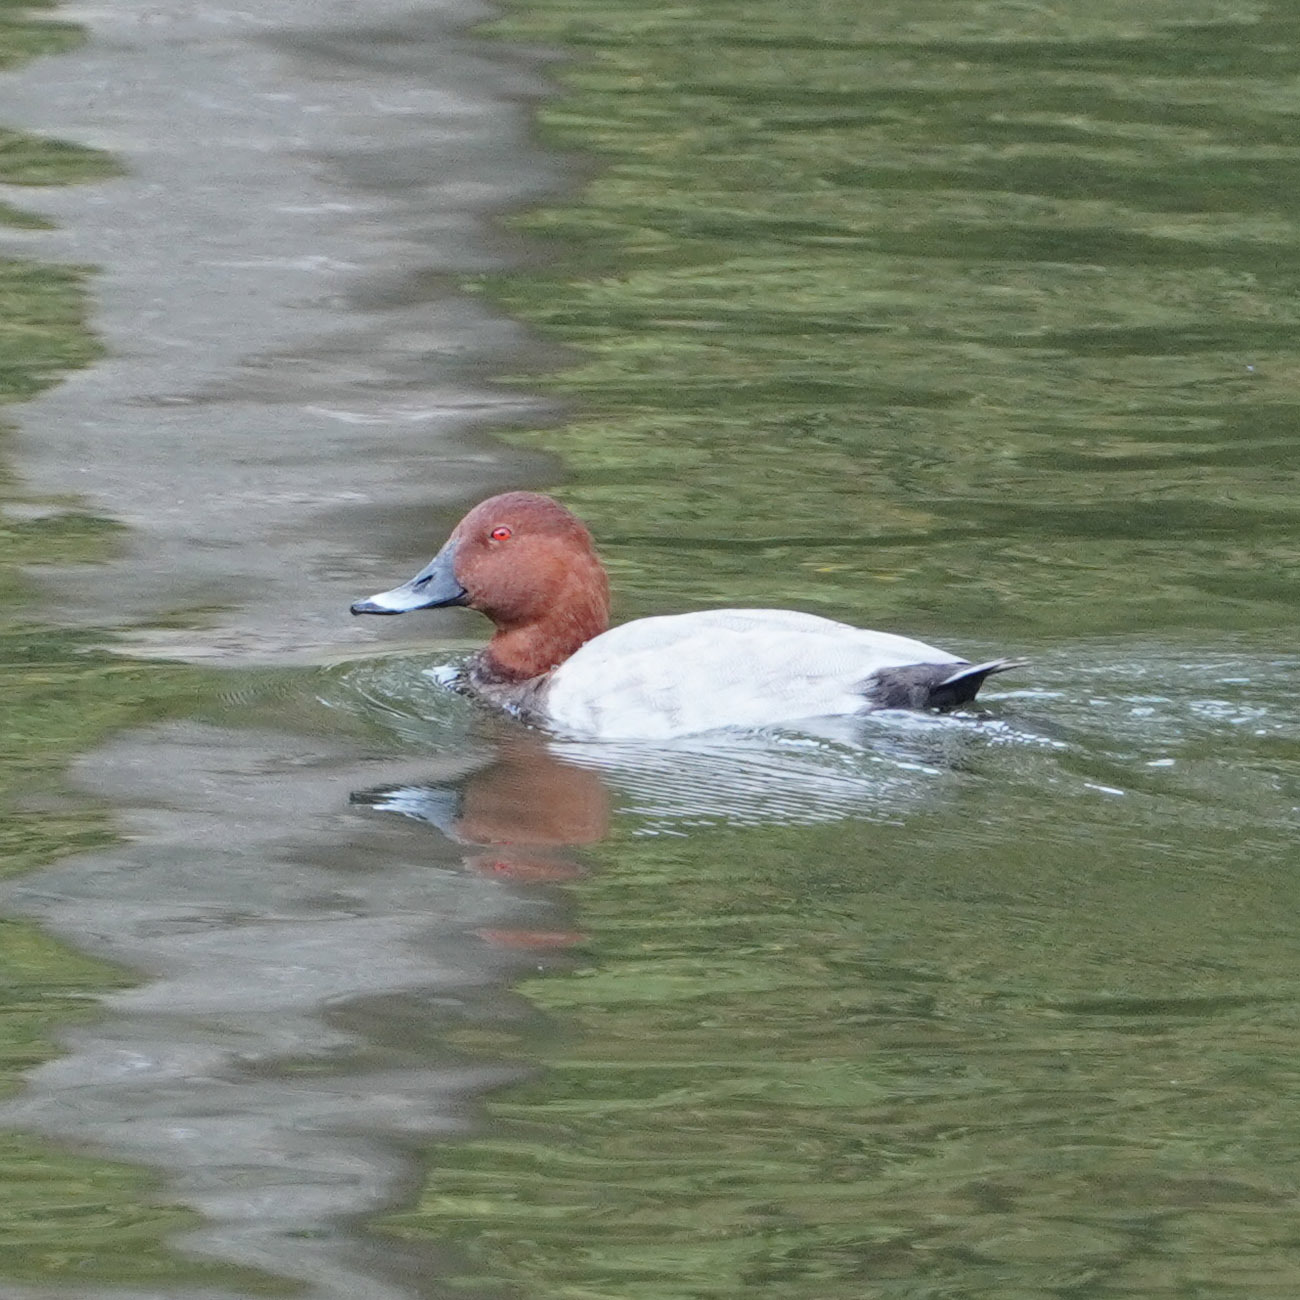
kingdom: Animalia
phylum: Chordata
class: Aves
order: Anseriformes
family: Anatidae
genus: Aythya
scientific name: Aythya ferina
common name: Common pochard
